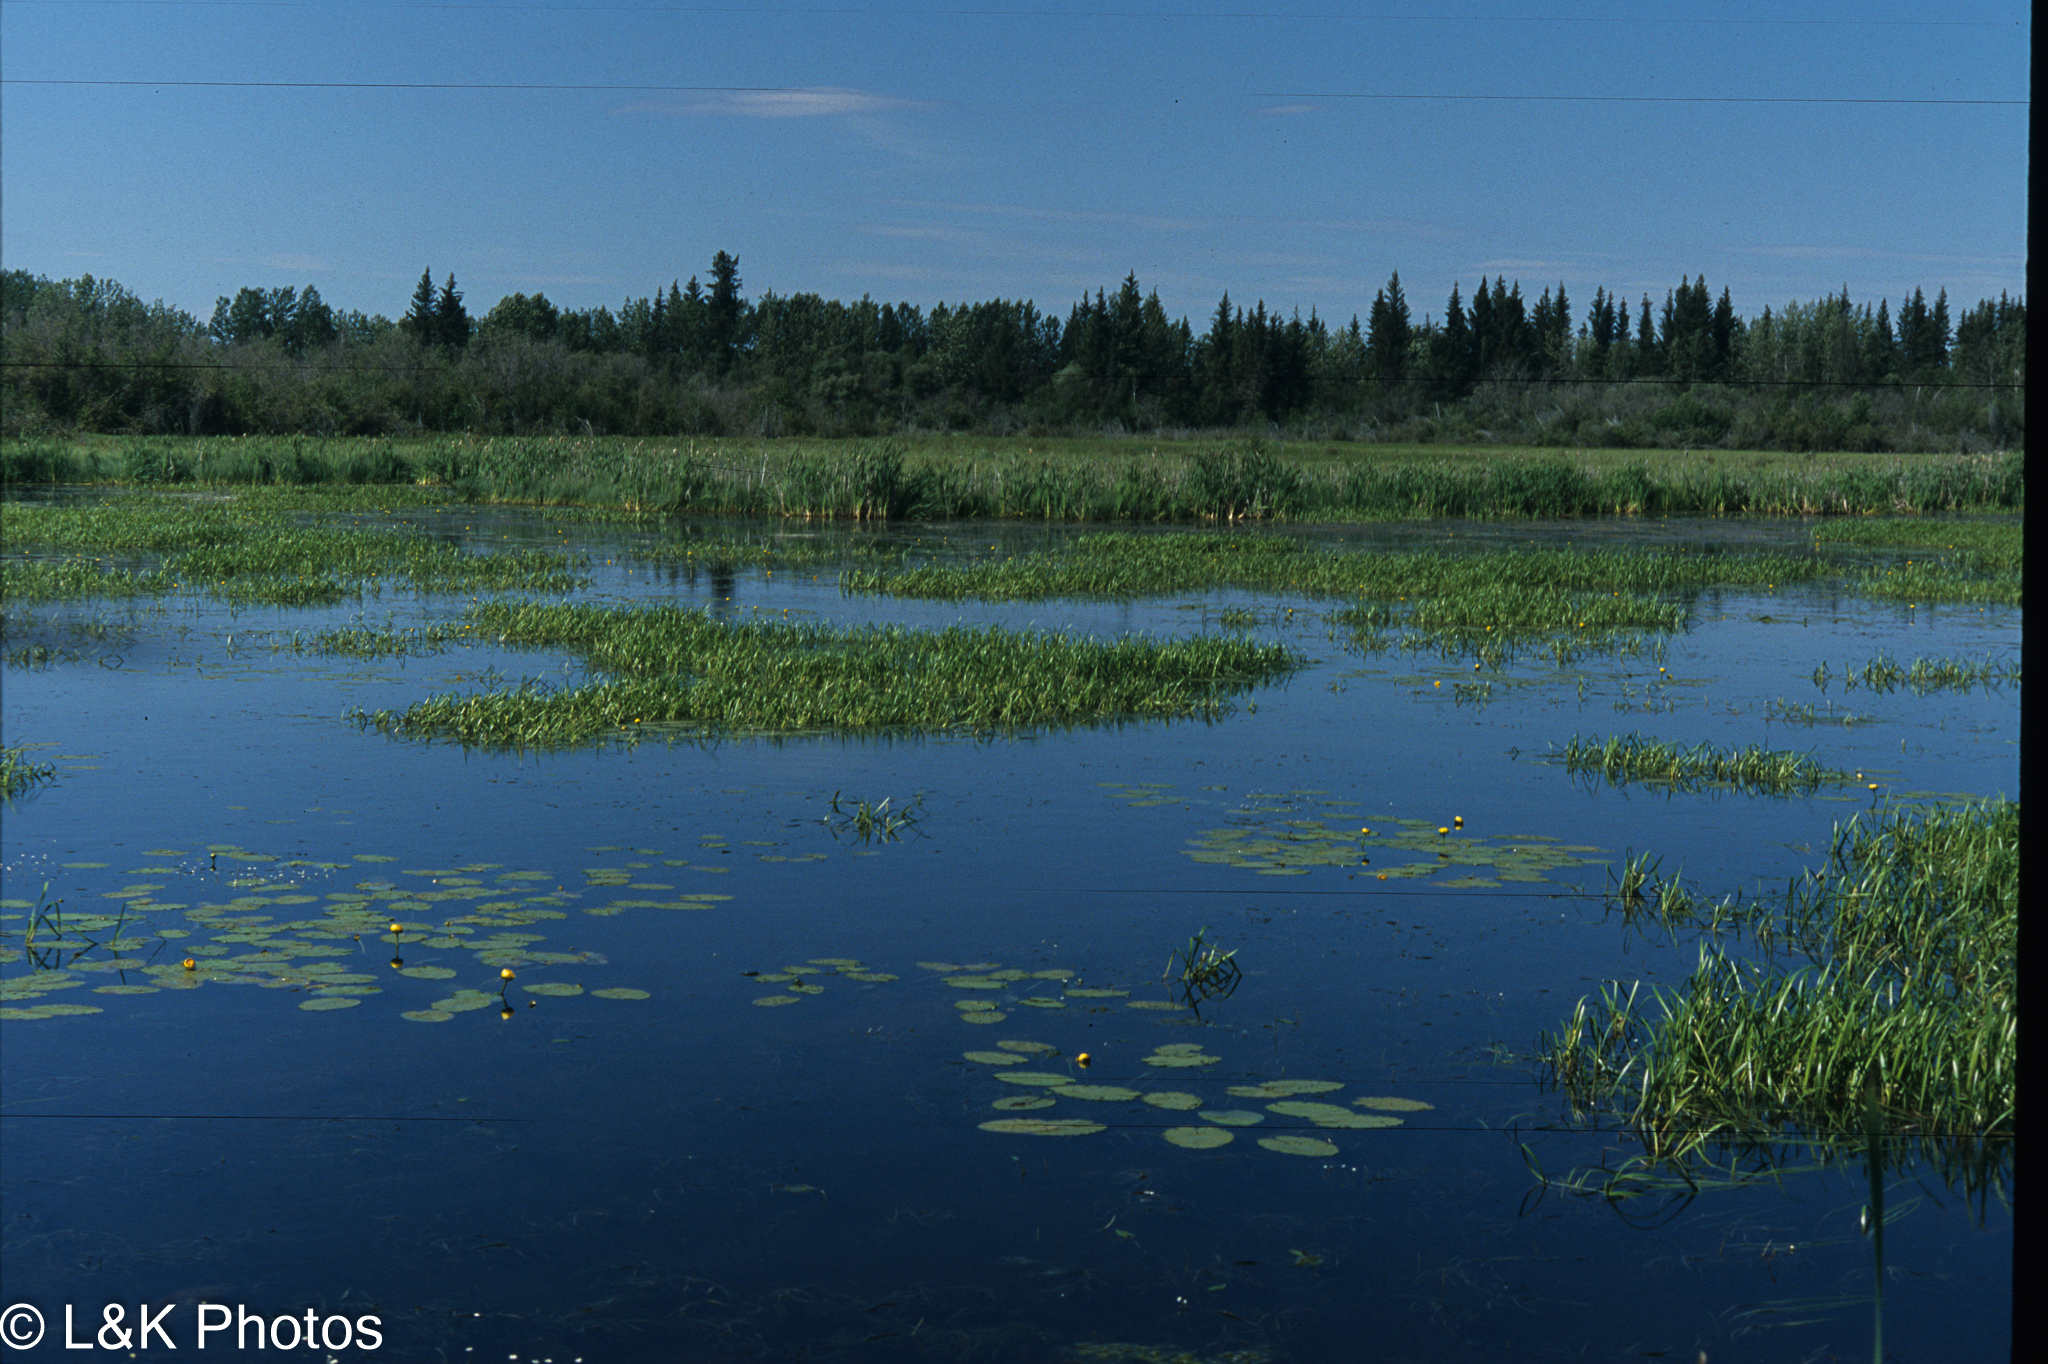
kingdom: Plantae
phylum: Tracheophyta
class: Magnoliopsida
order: Nymphaeales
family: Nymphaeaceae
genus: Nuphar
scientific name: Nuphar variegata
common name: Beaver-root
